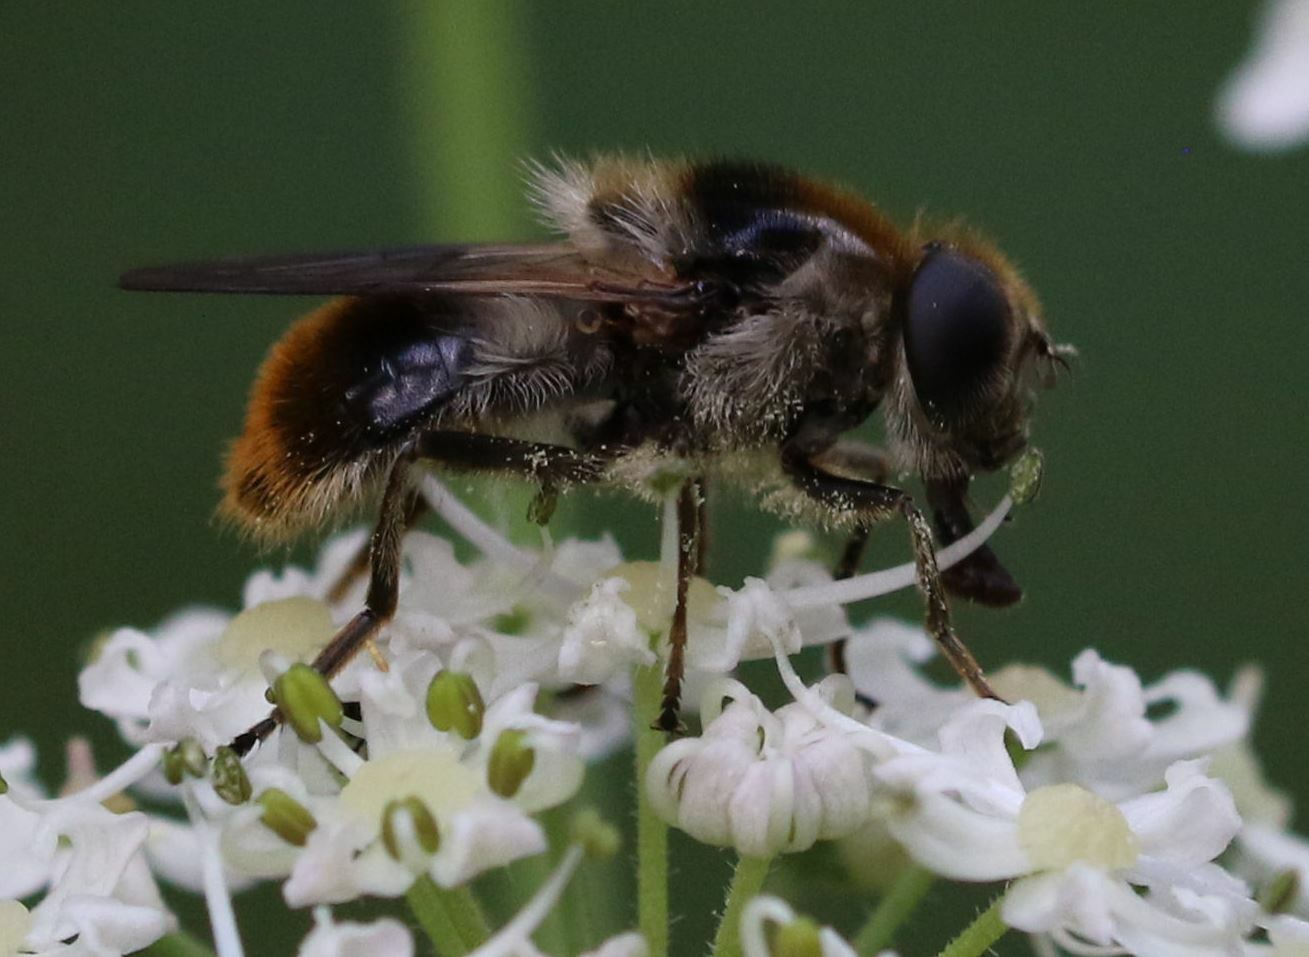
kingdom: Animalia
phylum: Arthropoda
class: Insecta
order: Diptera
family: Syrphidae
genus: Cheilosia
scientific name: Cheilosia illustrata
